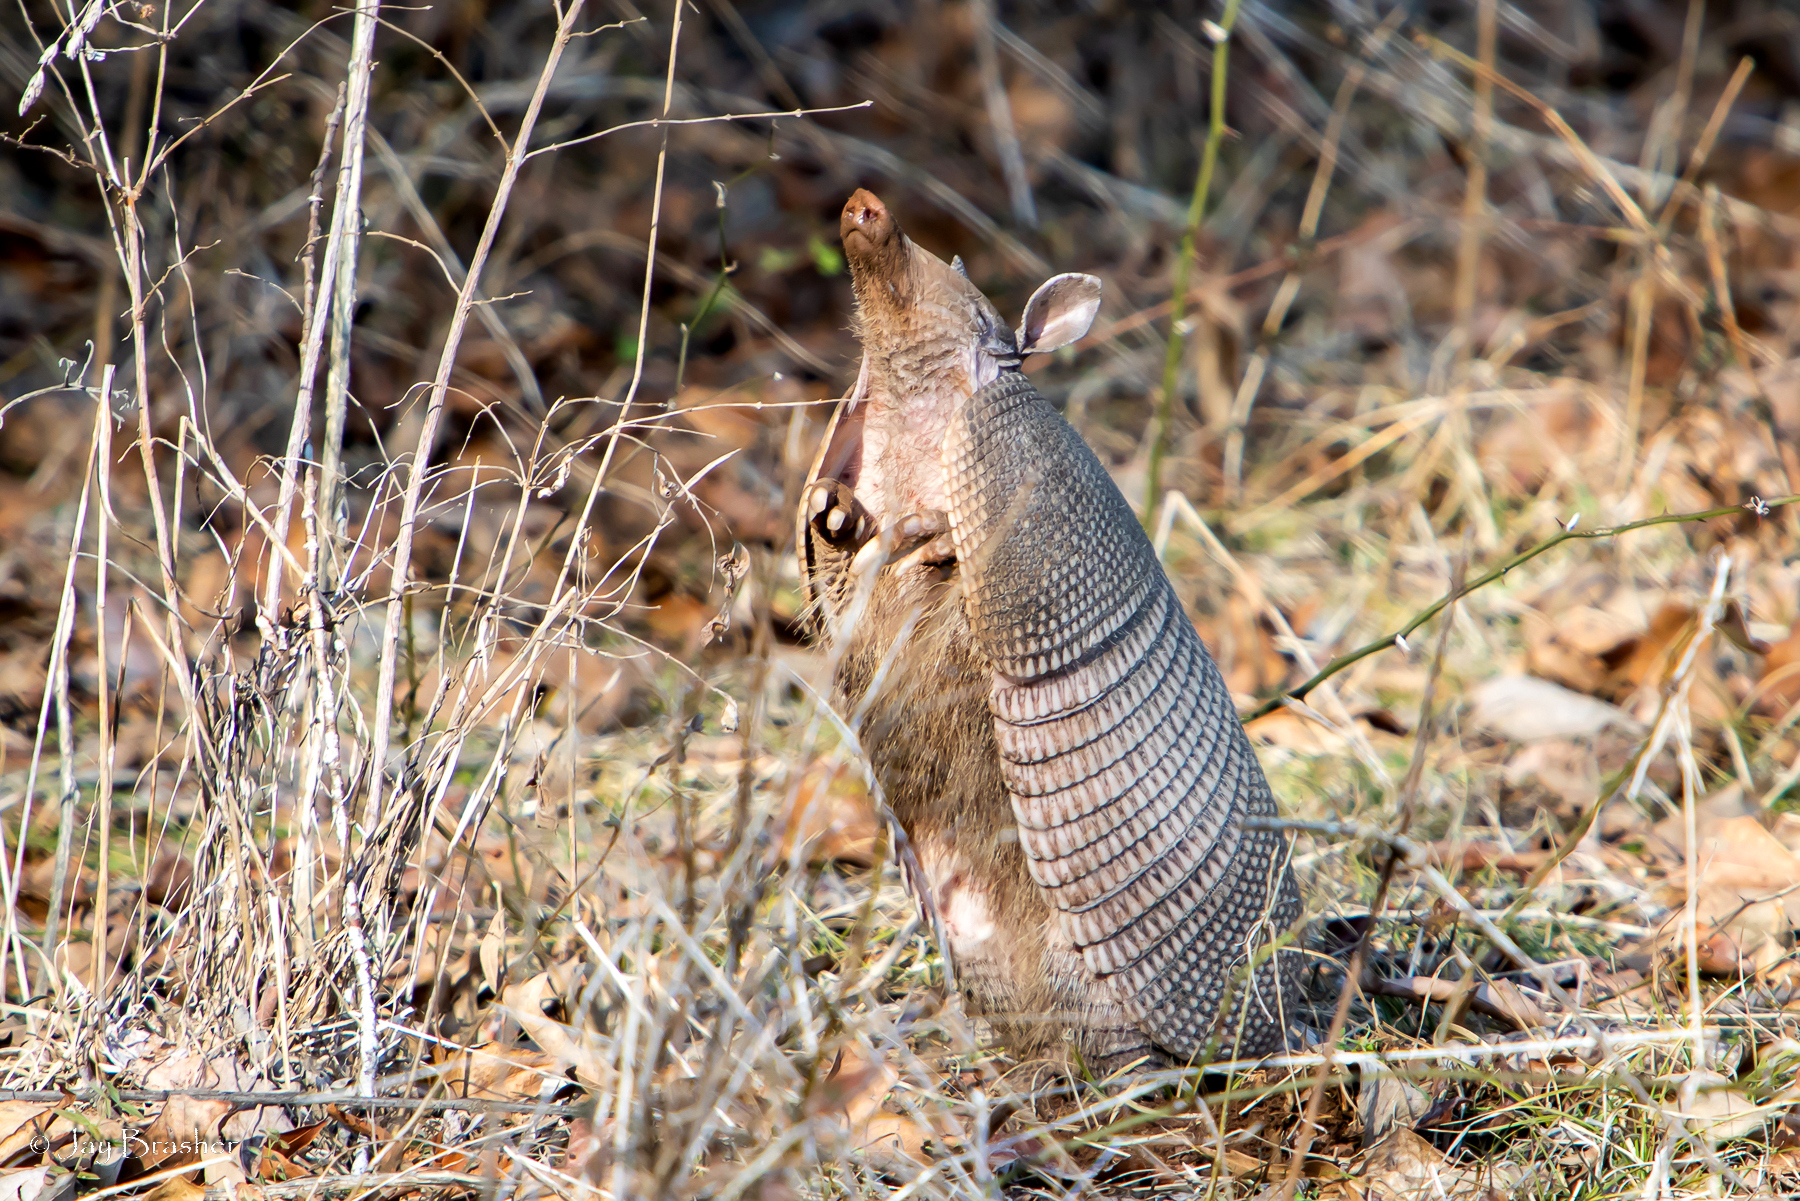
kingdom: Animalia
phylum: Chordata
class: Mammalia
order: Cingulata
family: Dasypodidae
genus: Dasypus
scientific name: Dasypus novemcinctus
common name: Nine-banded armadillo
